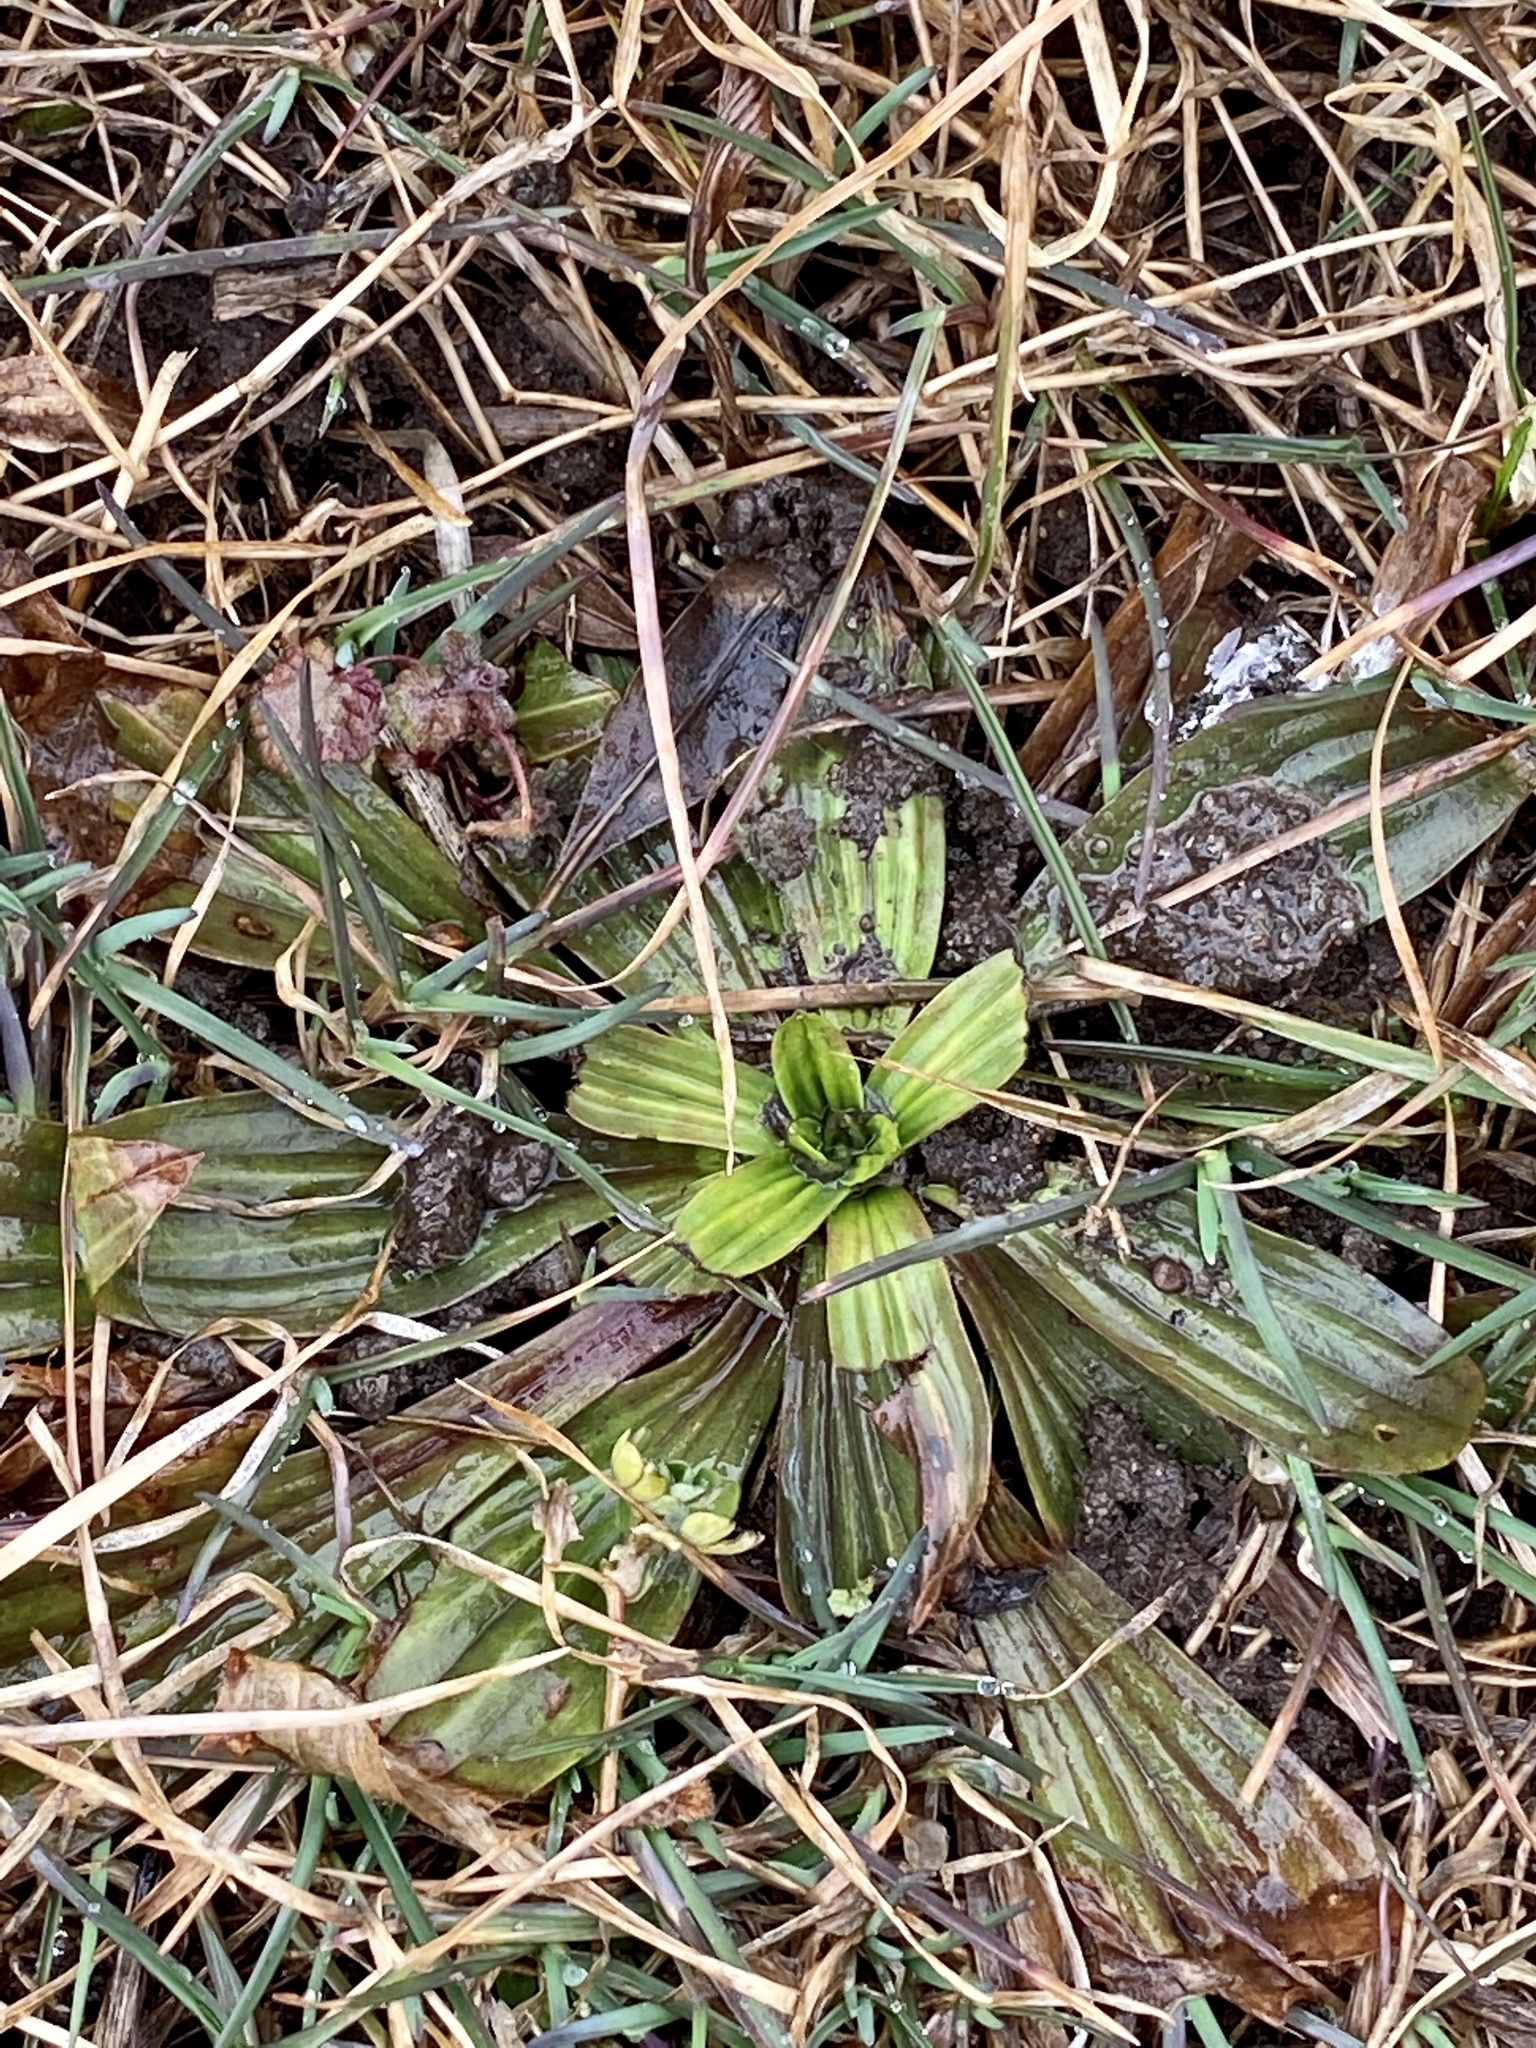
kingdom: Plantae
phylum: Tracheophyta
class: Magnoliopsida
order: Lamiales
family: Plantaginaceae
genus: Plantago
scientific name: Plantago lanceolata
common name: Ribwort plantain
